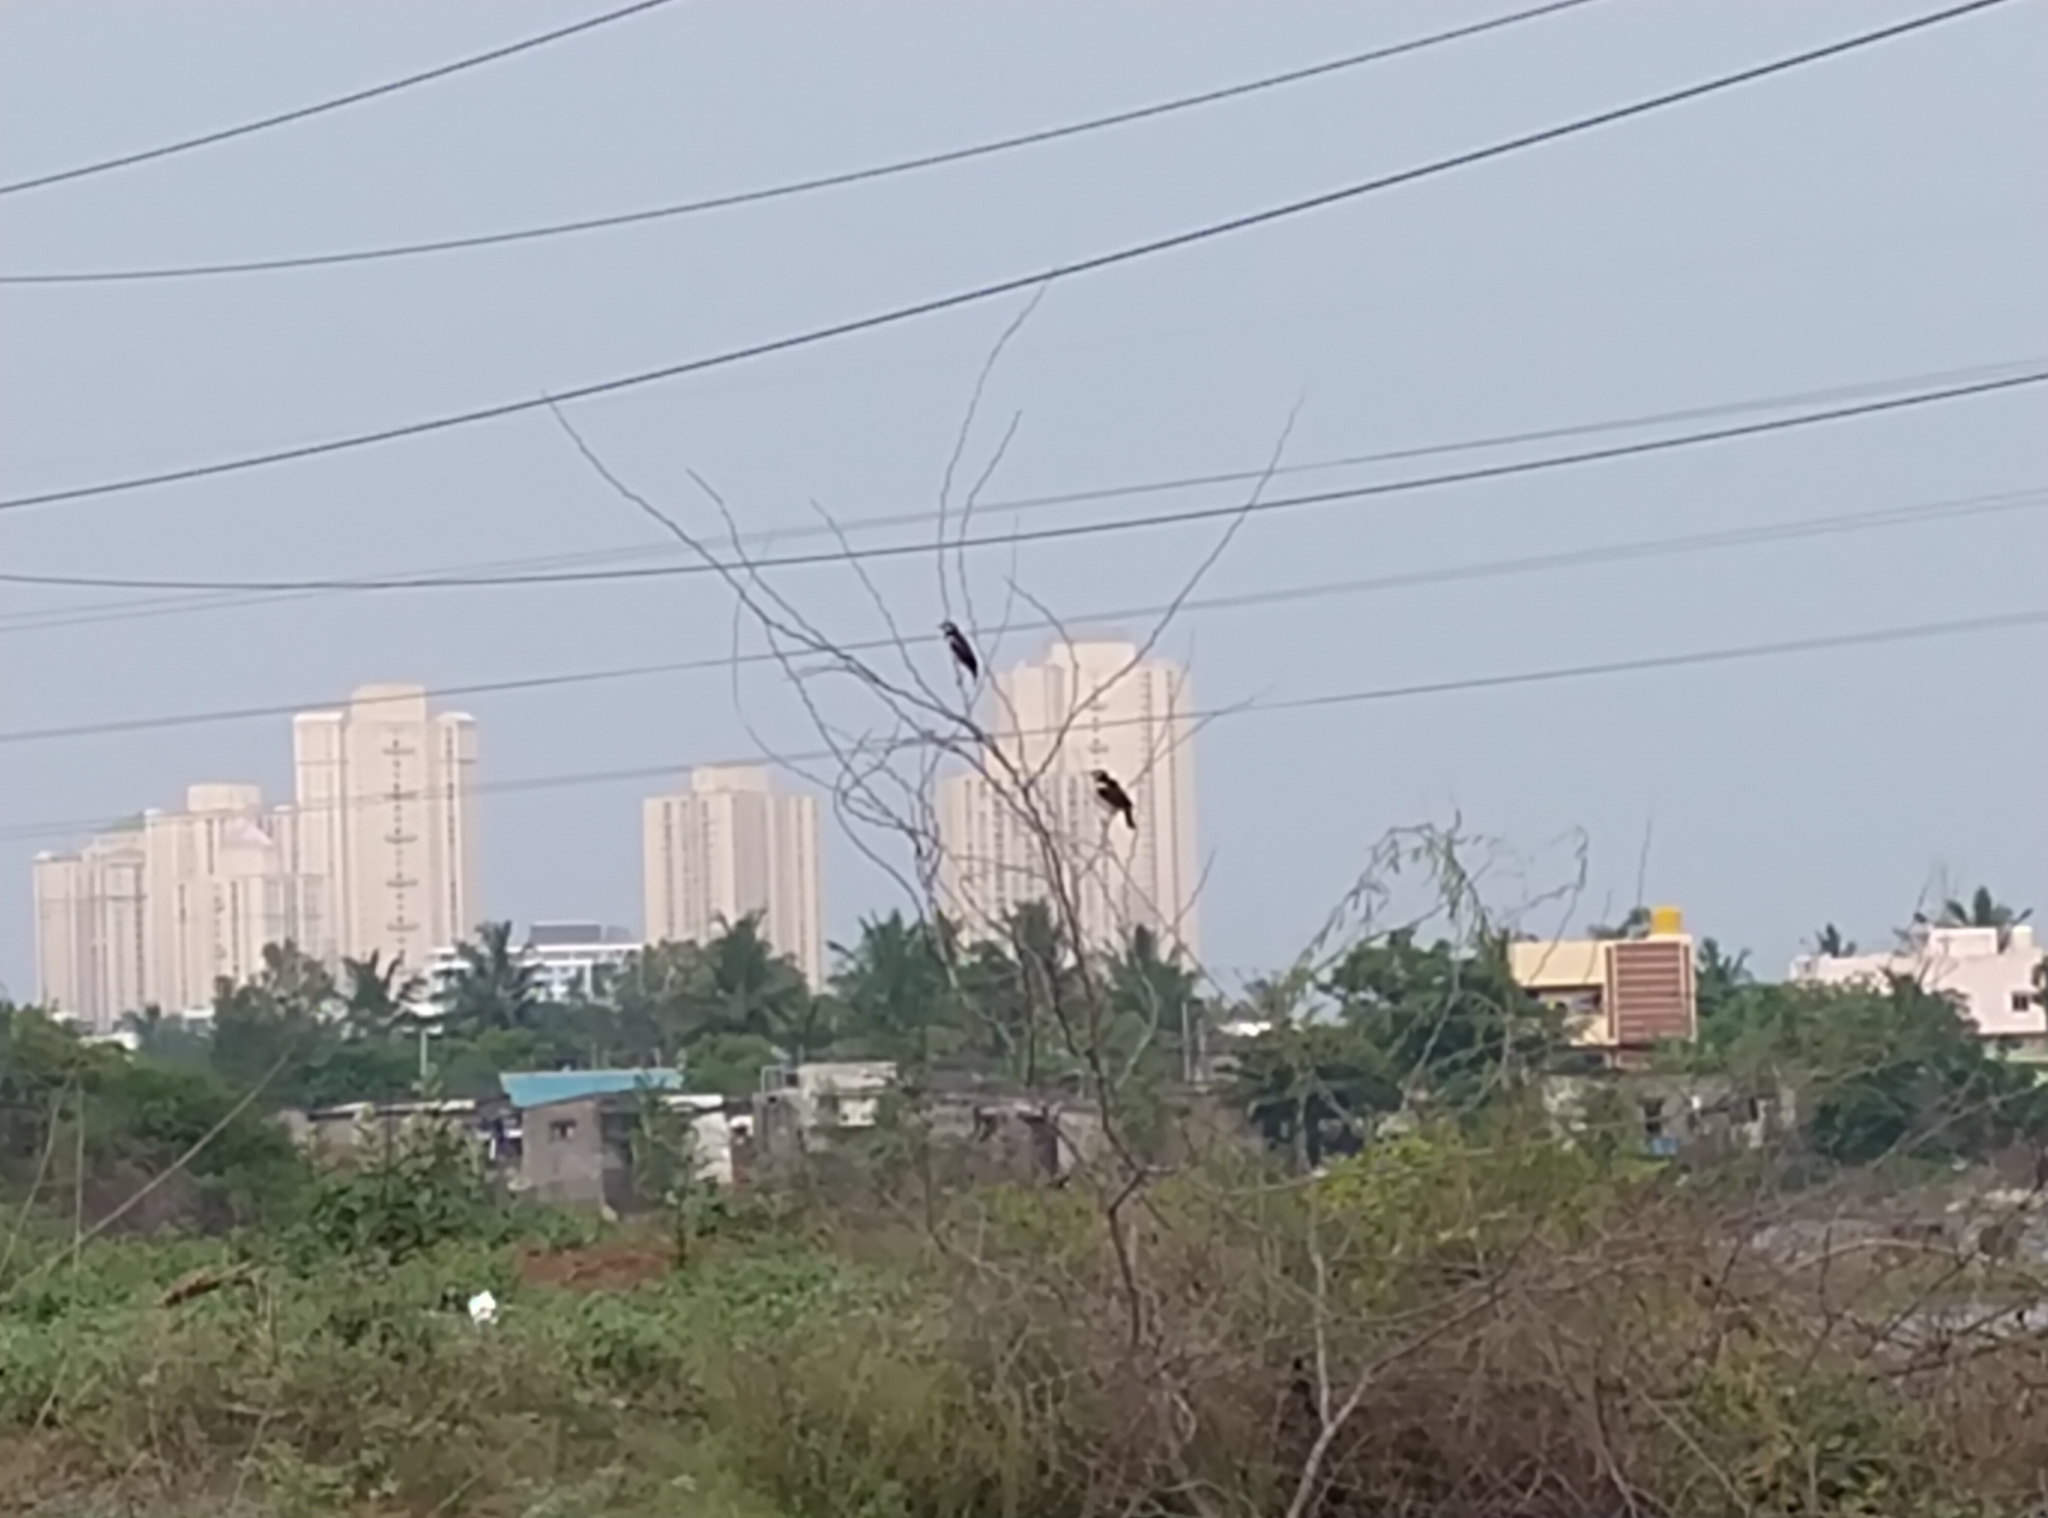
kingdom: Animalia
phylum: Chordata
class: Aves
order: Passeriformes
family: Sturnidae
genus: Gracupica
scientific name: Gracupica contra
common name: Pied myna
